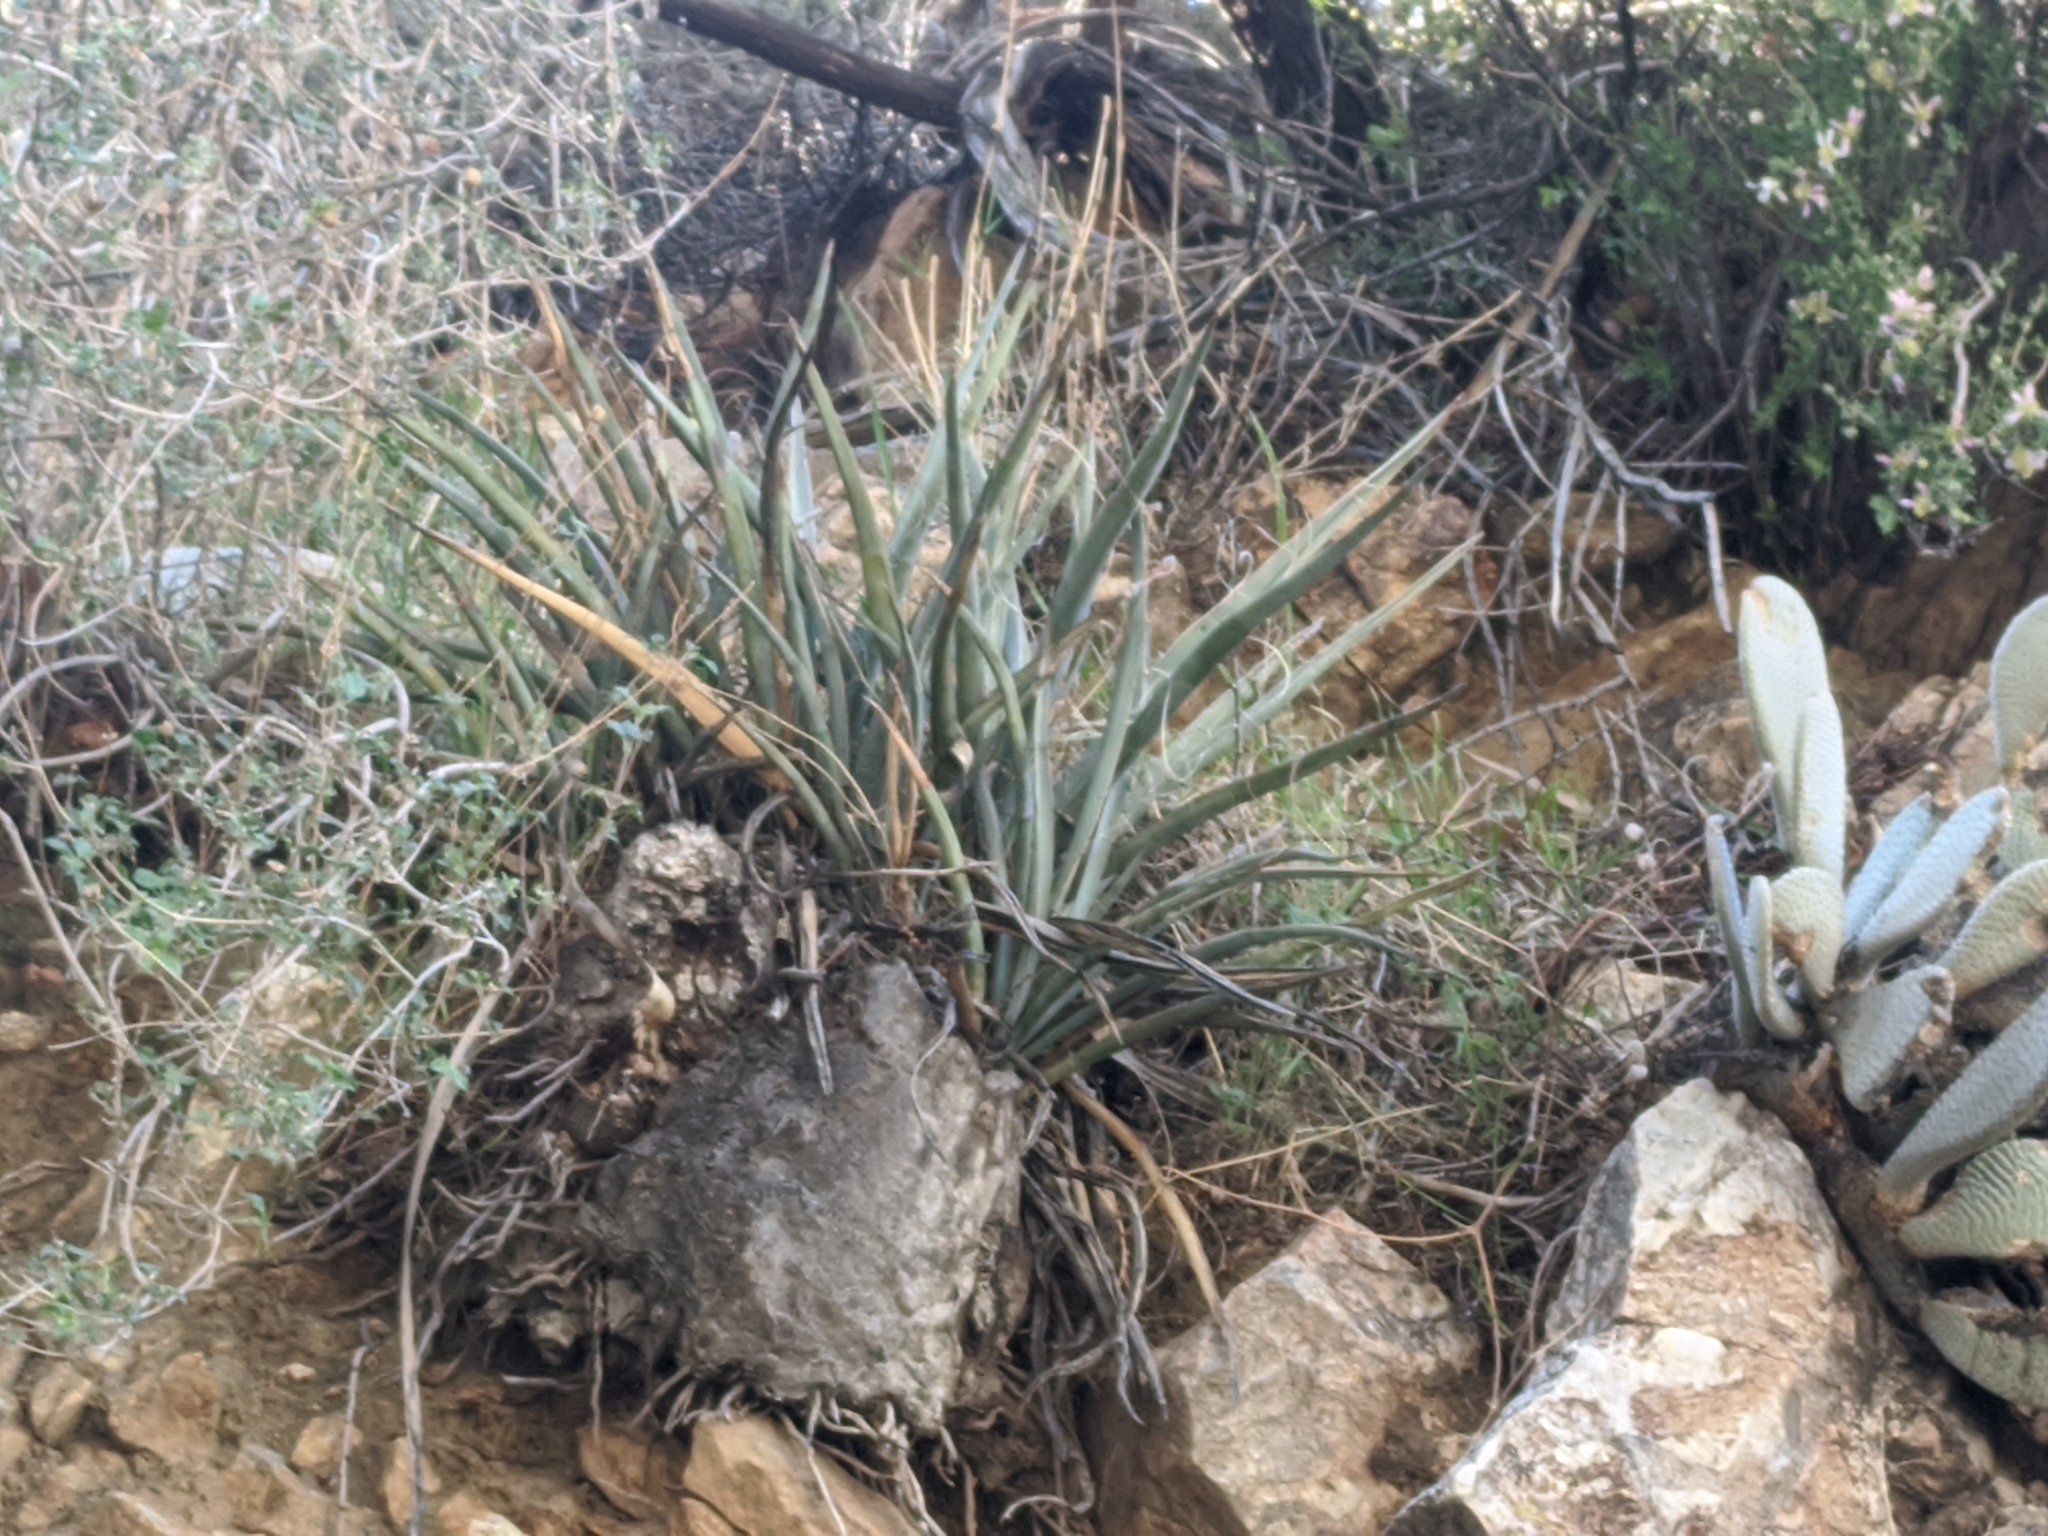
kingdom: Plantae
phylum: Tracheophyta
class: Liliopsida
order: Asparagales
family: Asparagaceae
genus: Yucca
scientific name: Yucca schidigera
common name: Mojave yucca
